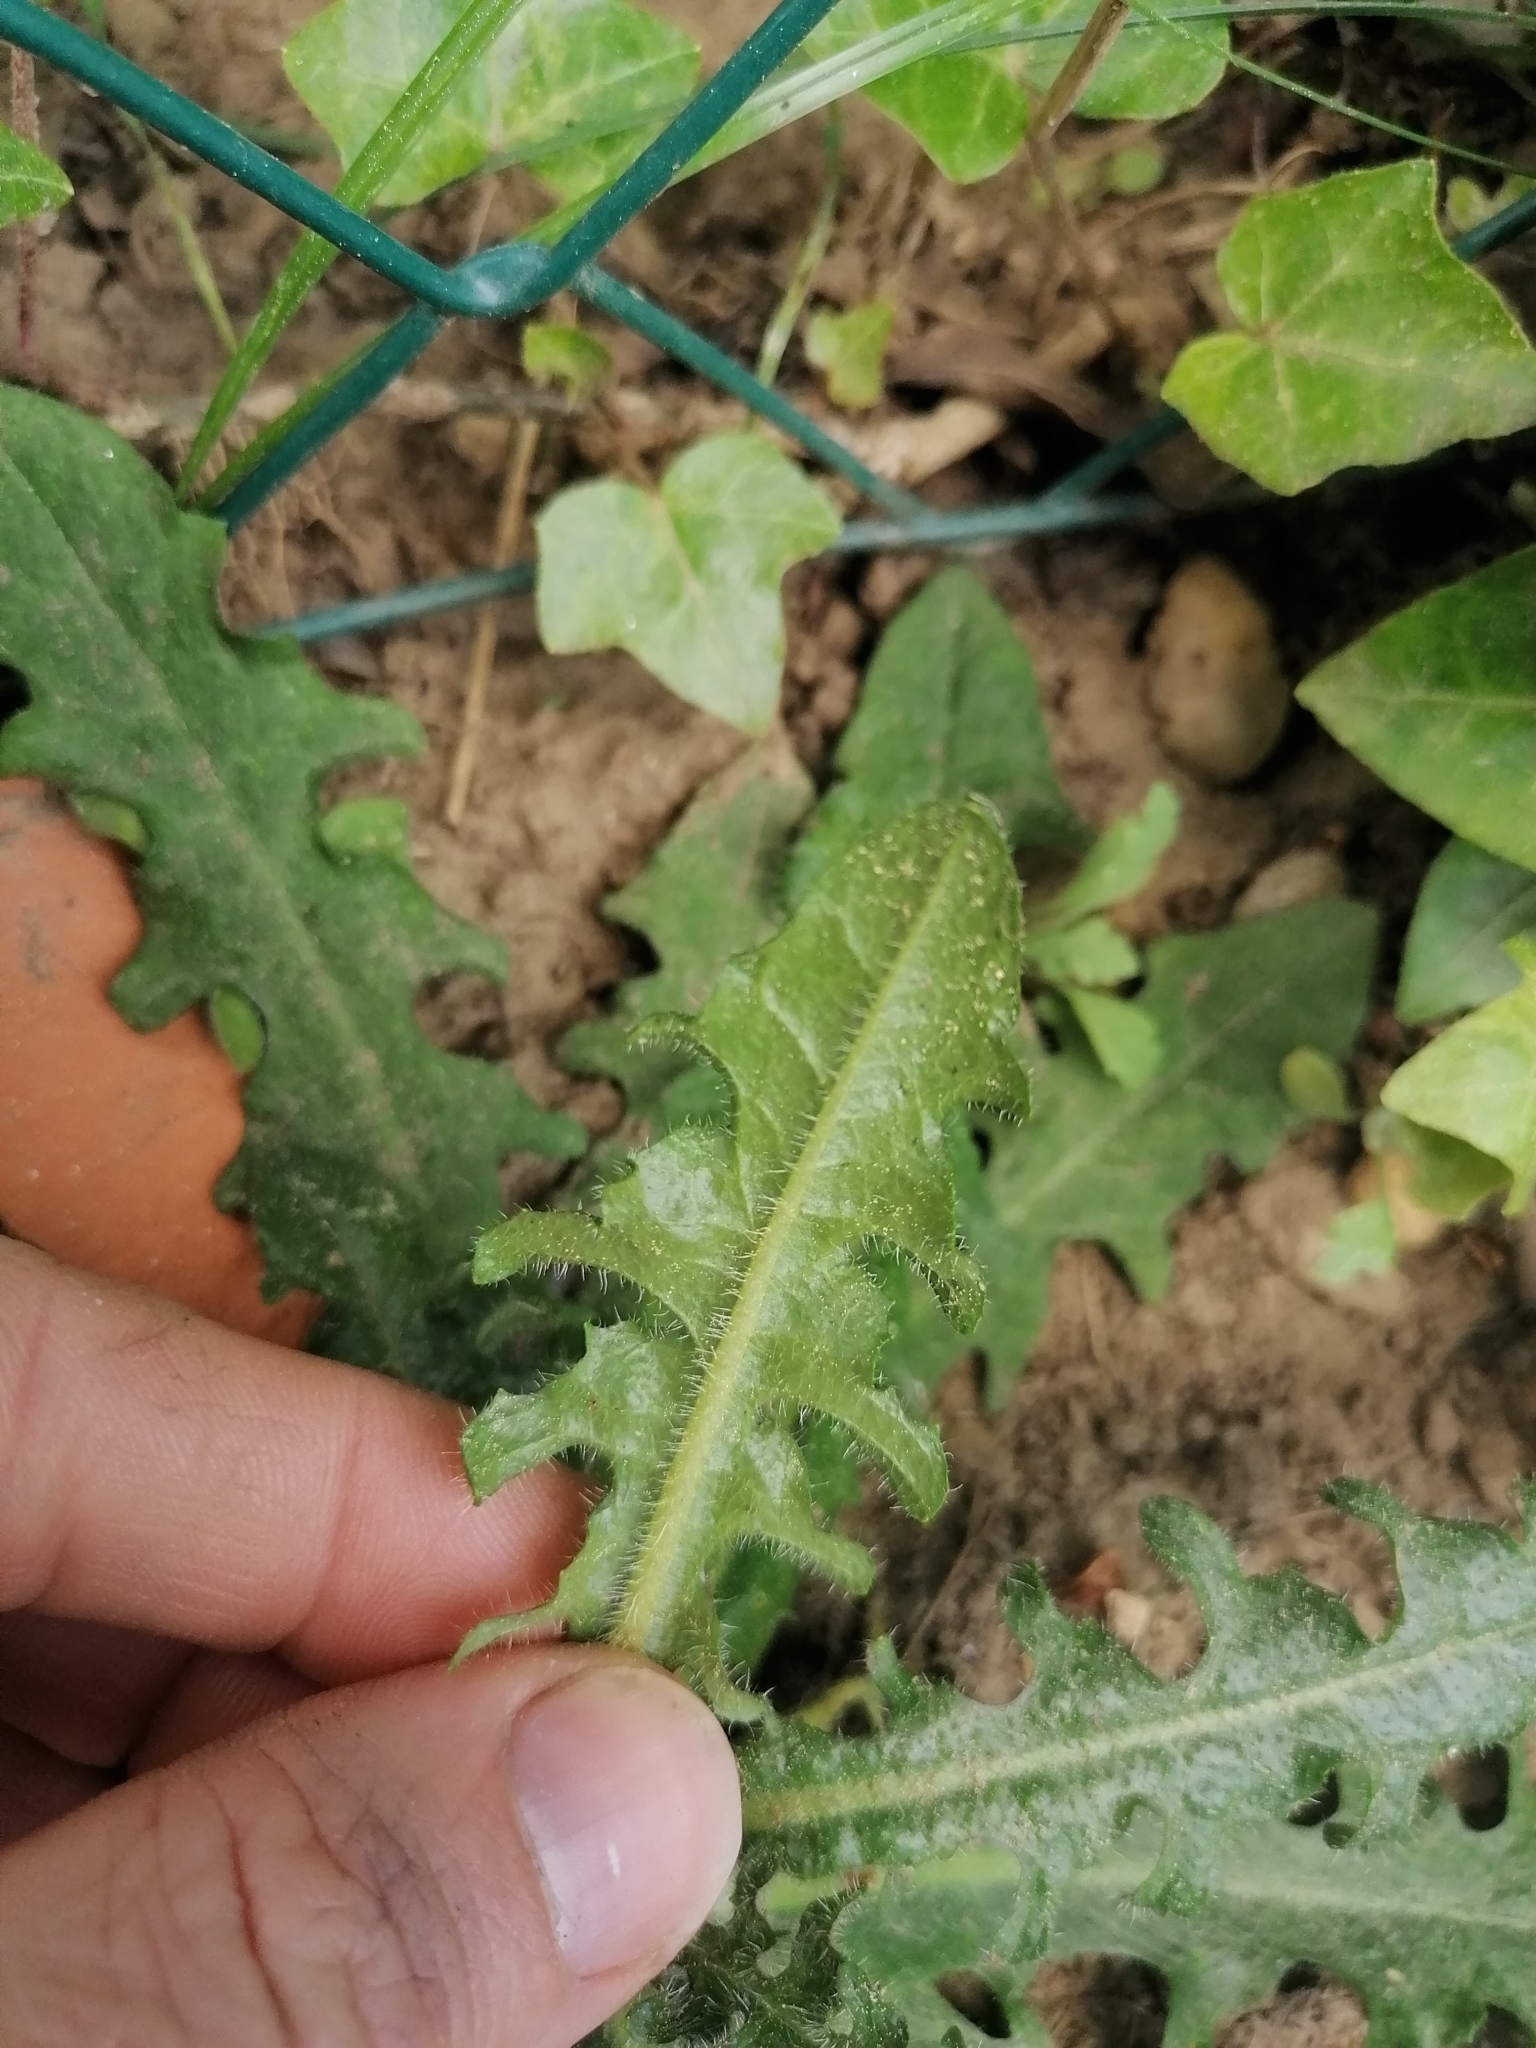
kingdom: Plantae
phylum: Tracheophyta
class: Magnoliopsida
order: Asterales
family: Asteraceae
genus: Hypochaeris
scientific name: Hypochaeris radicata
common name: Flatweed
